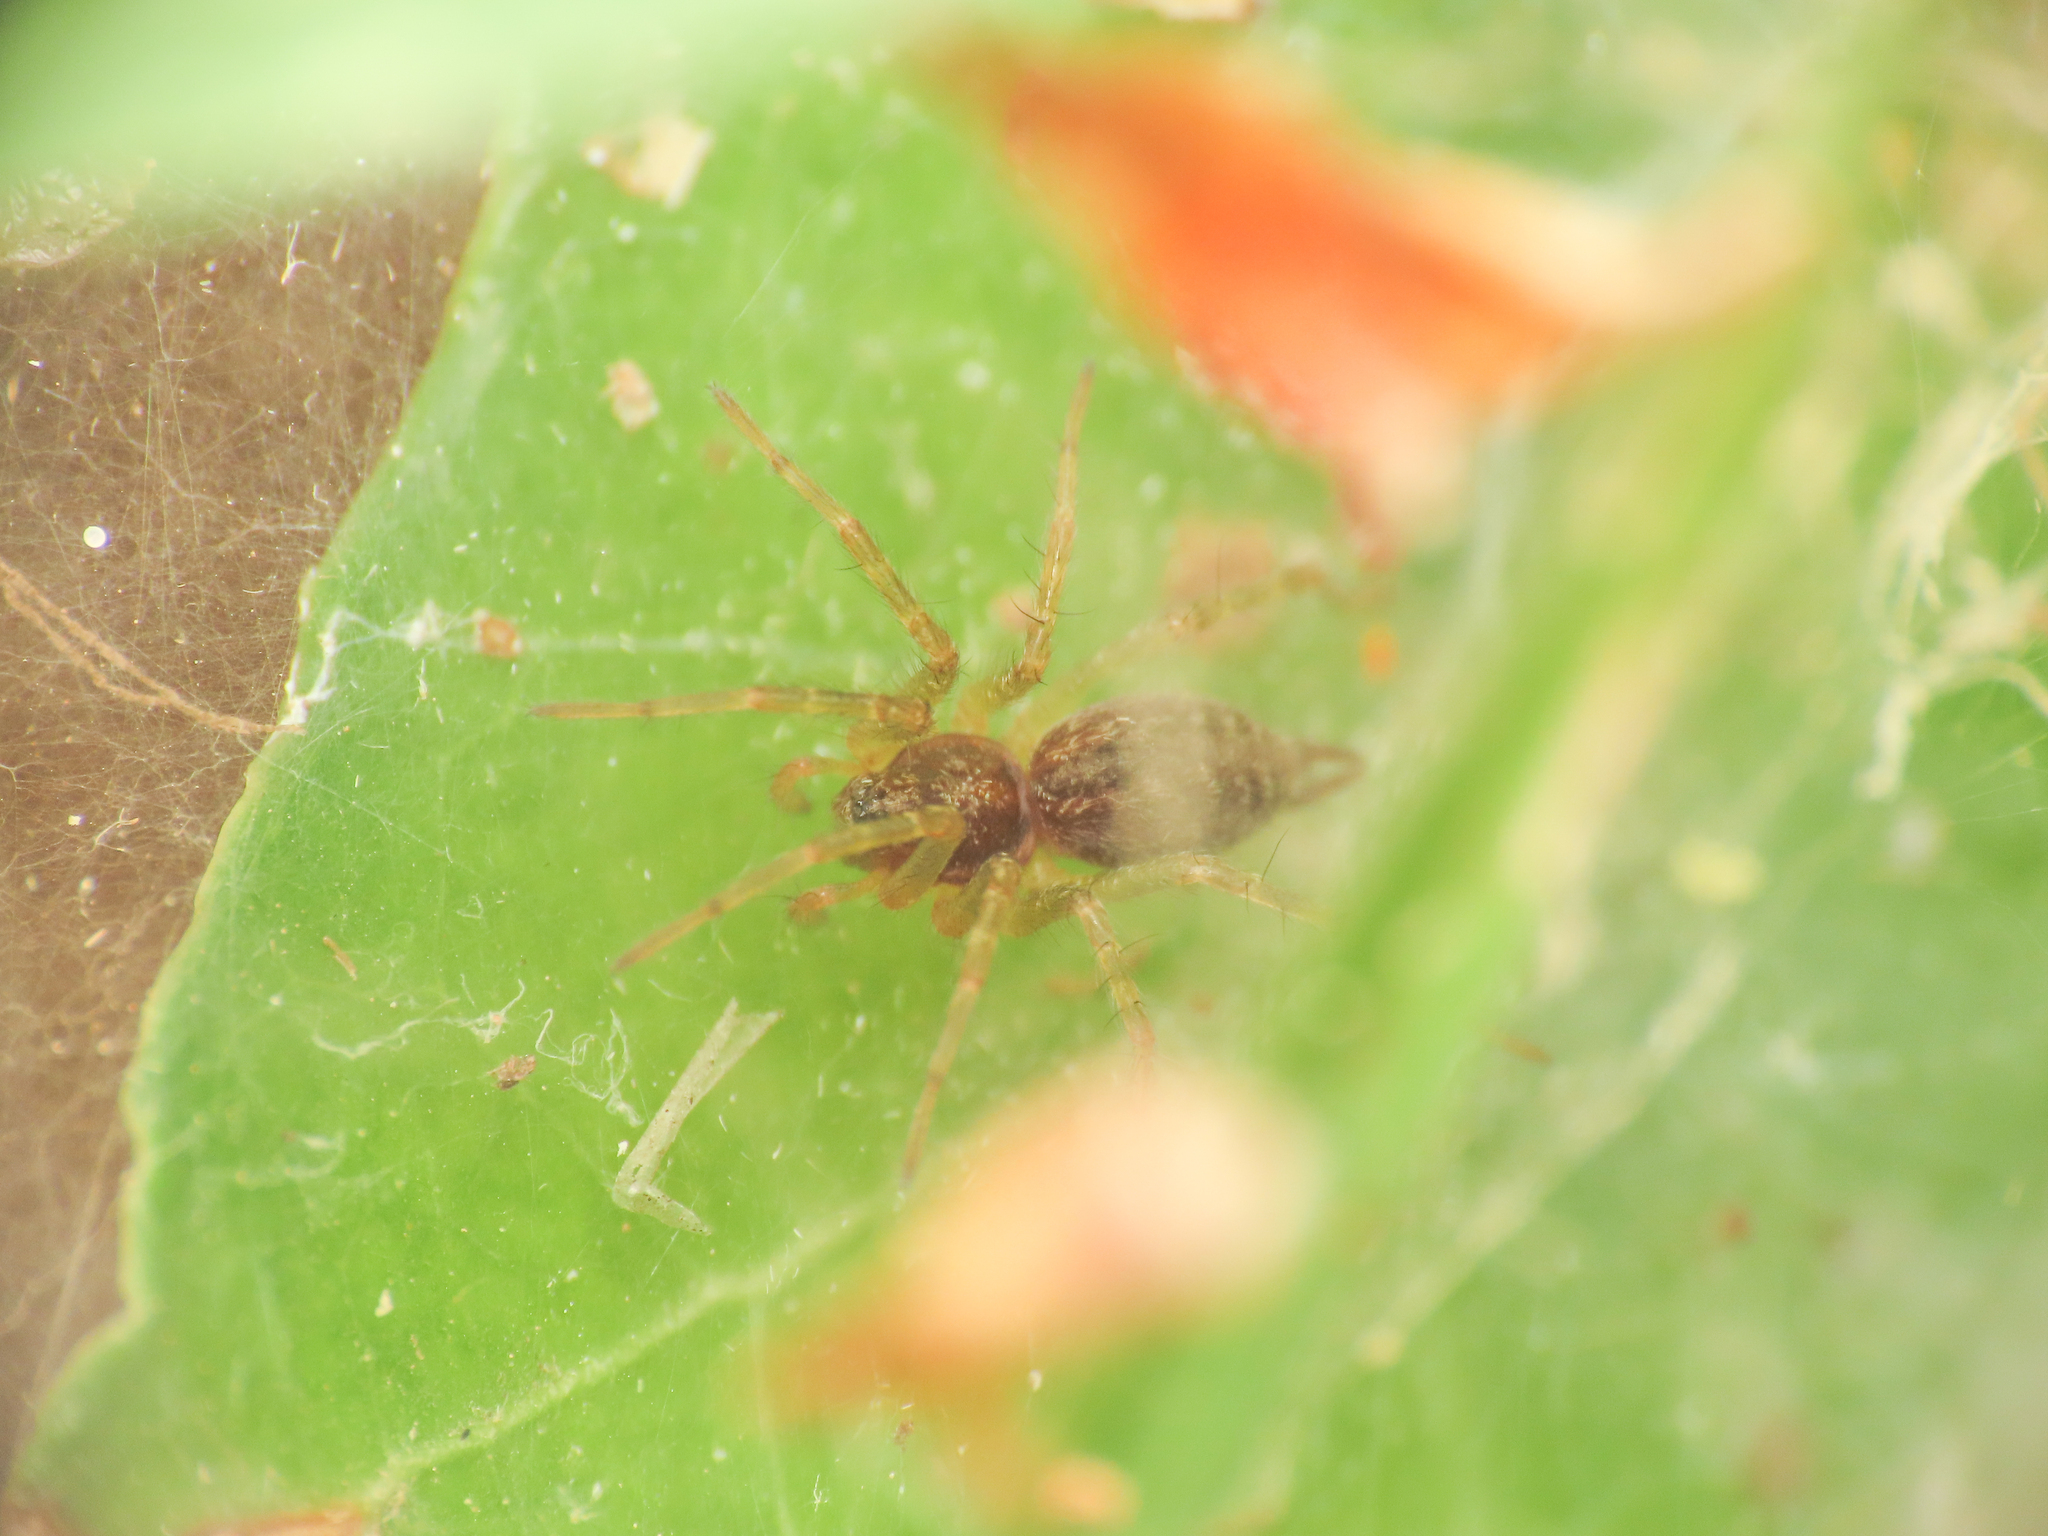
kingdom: Animalia
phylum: Arthropoda
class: Arachnida
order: Araneae
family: Agelenidae
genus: Allagelena
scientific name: Allagelena gracilens
